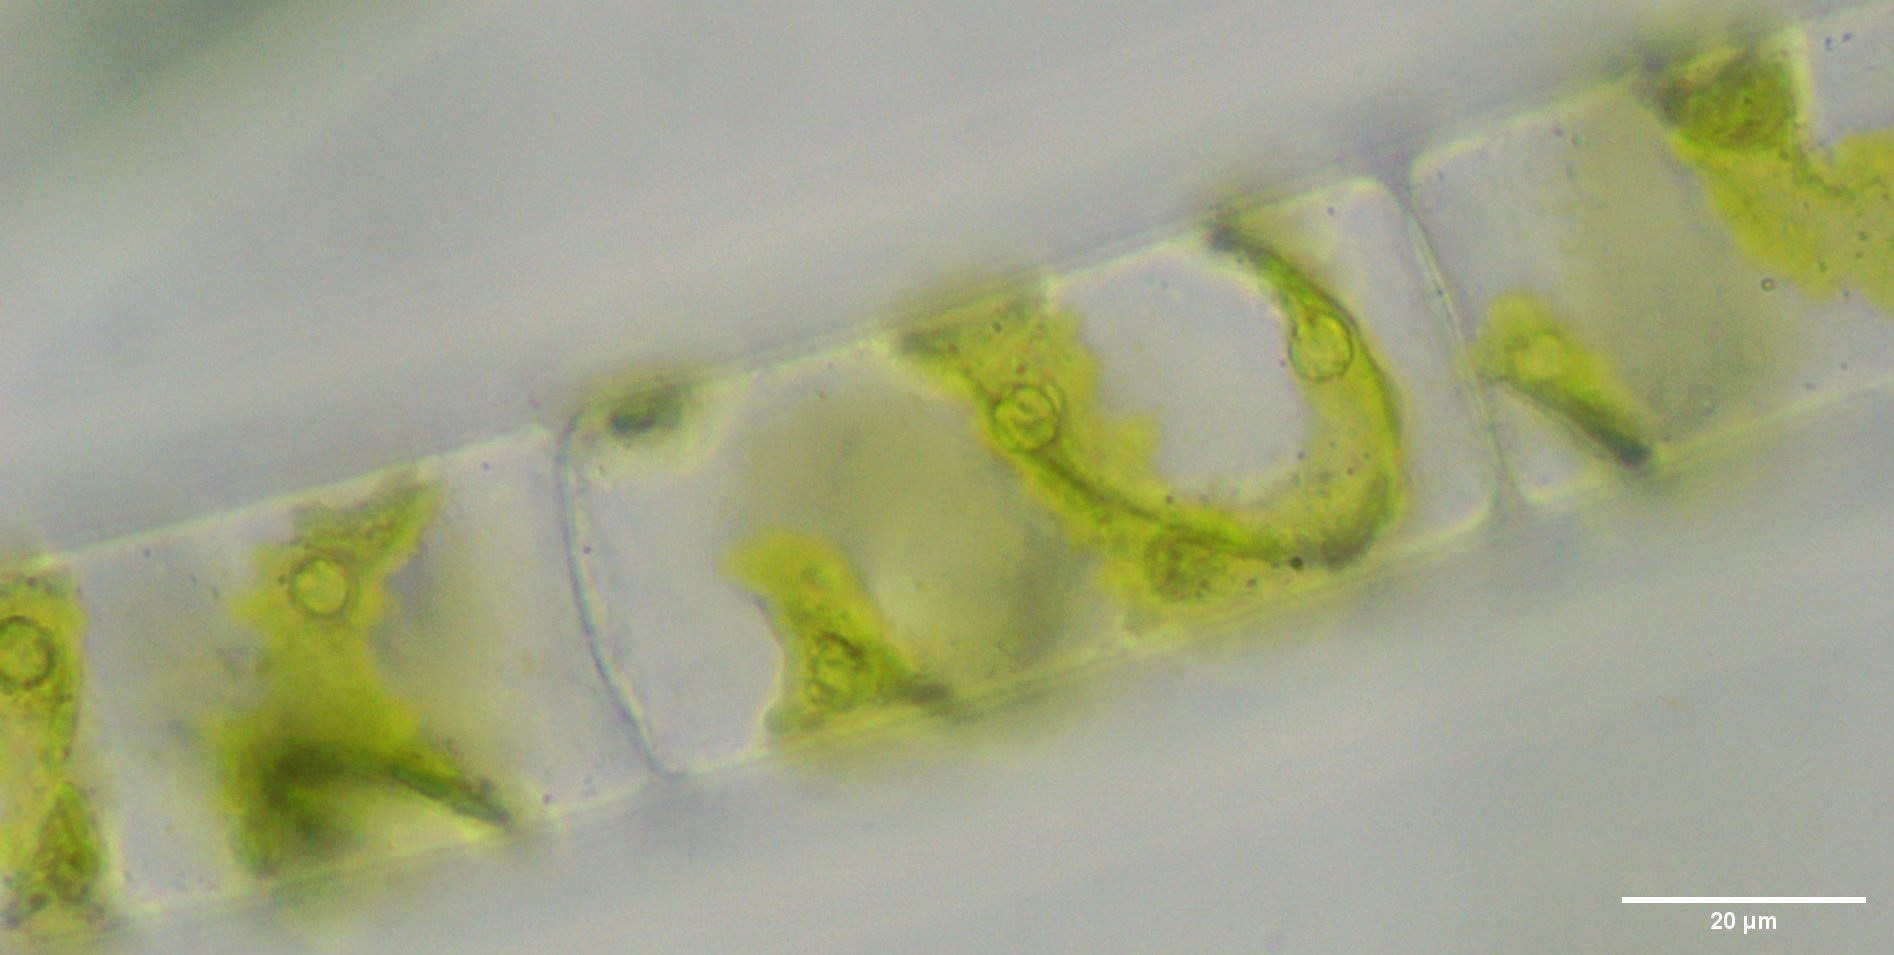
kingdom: Plantae
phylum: Charophyta
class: Zygnematophyceae
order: Zygnematales
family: Zygnemataceae
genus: Spirogyra
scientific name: Spirogyra
